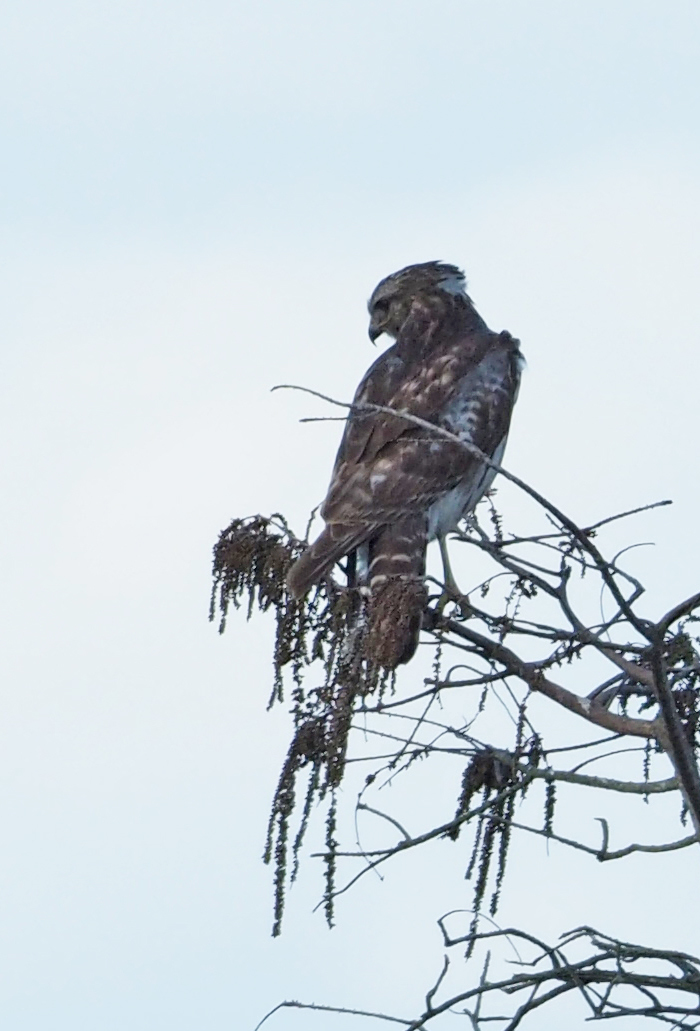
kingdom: Animalia
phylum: Chordata
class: Aves
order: Accipitriformes
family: Accipitridae
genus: Buteo
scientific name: Buteo lineatus
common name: Red-shouldered hawk
